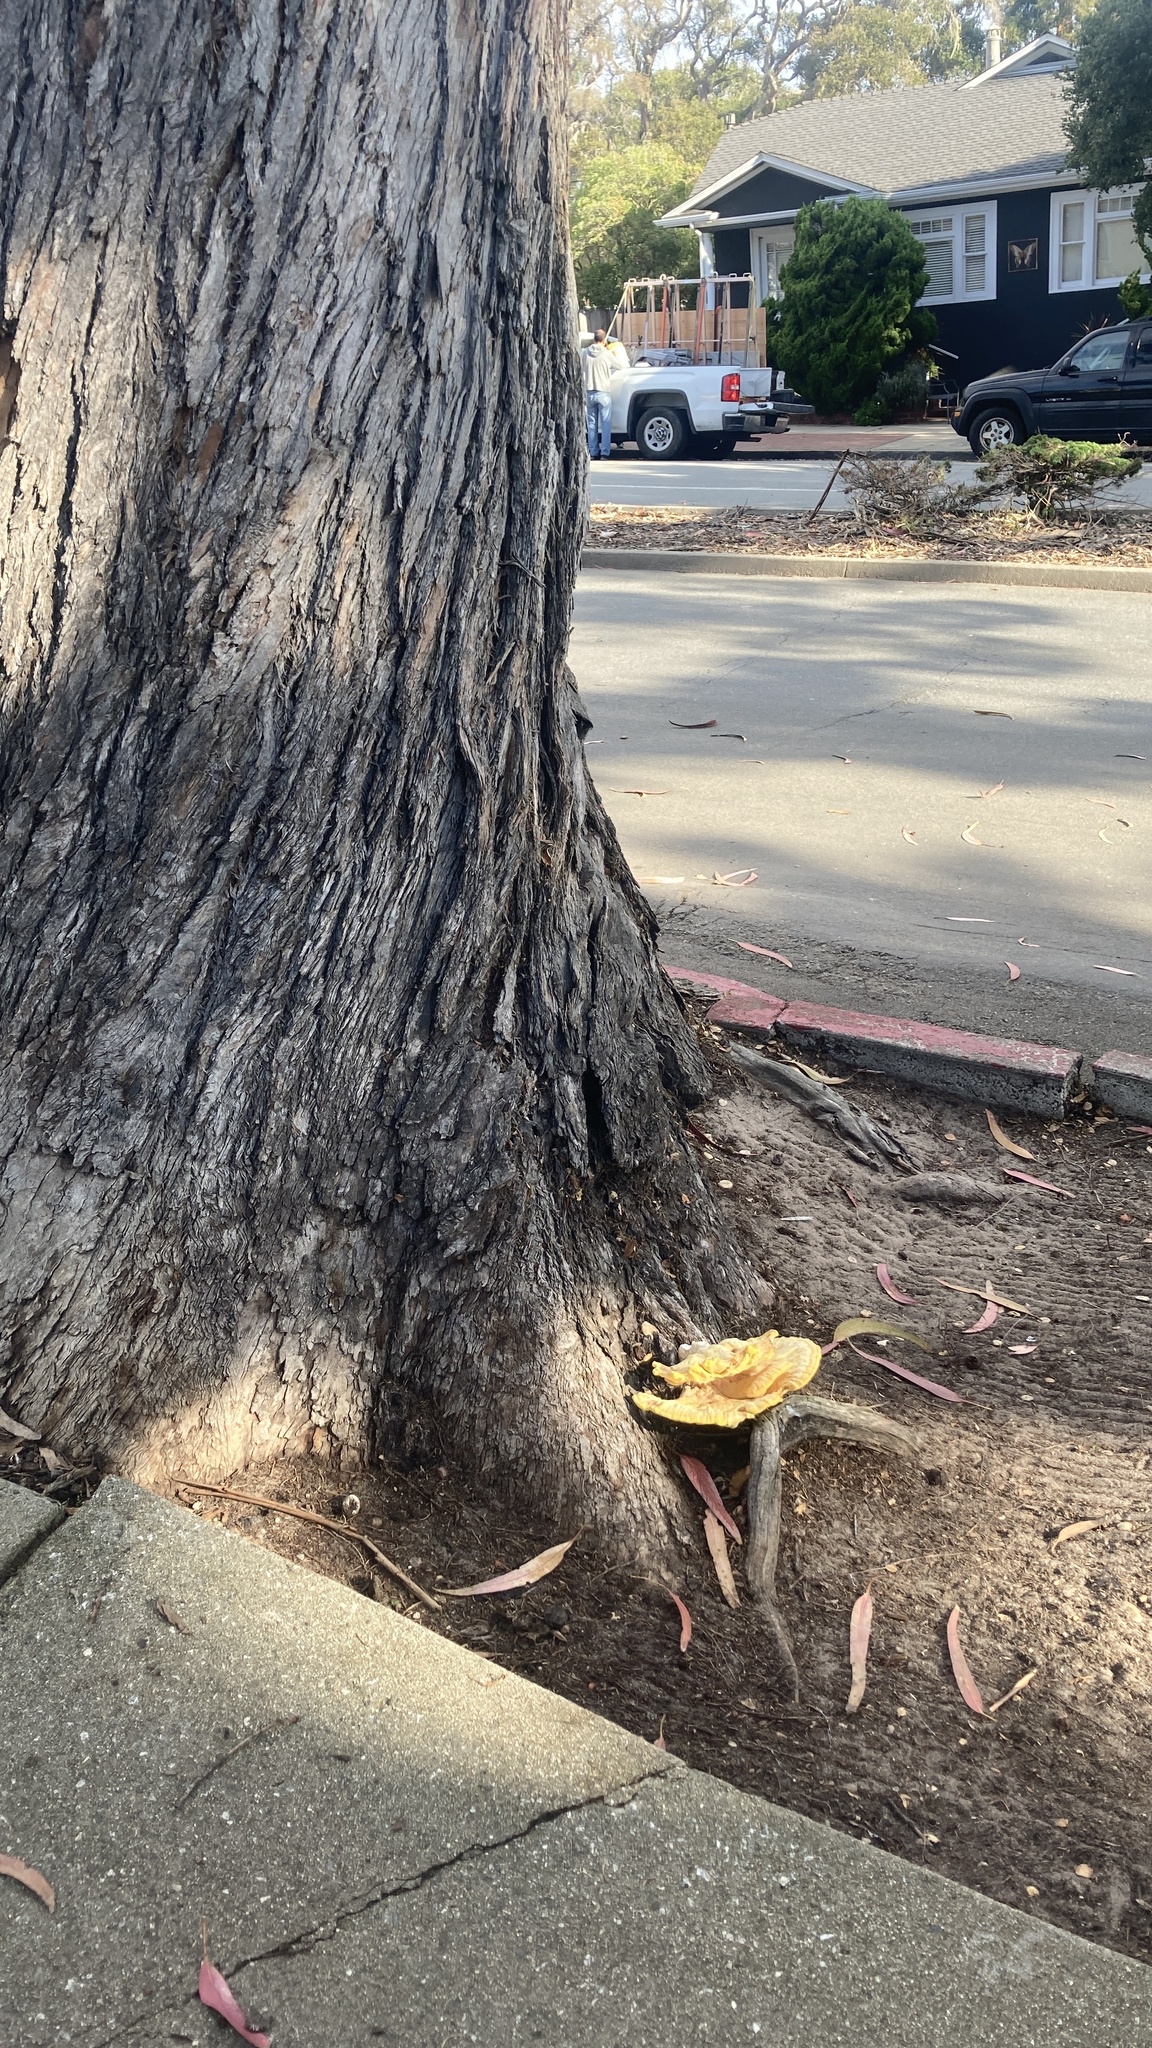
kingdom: Fungi
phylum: Basidiomycota
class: Agaricomycetes
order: Polyporales
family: Laetiporaceae
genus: Laetiporus
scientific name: Laetiporus gilbertsonii
